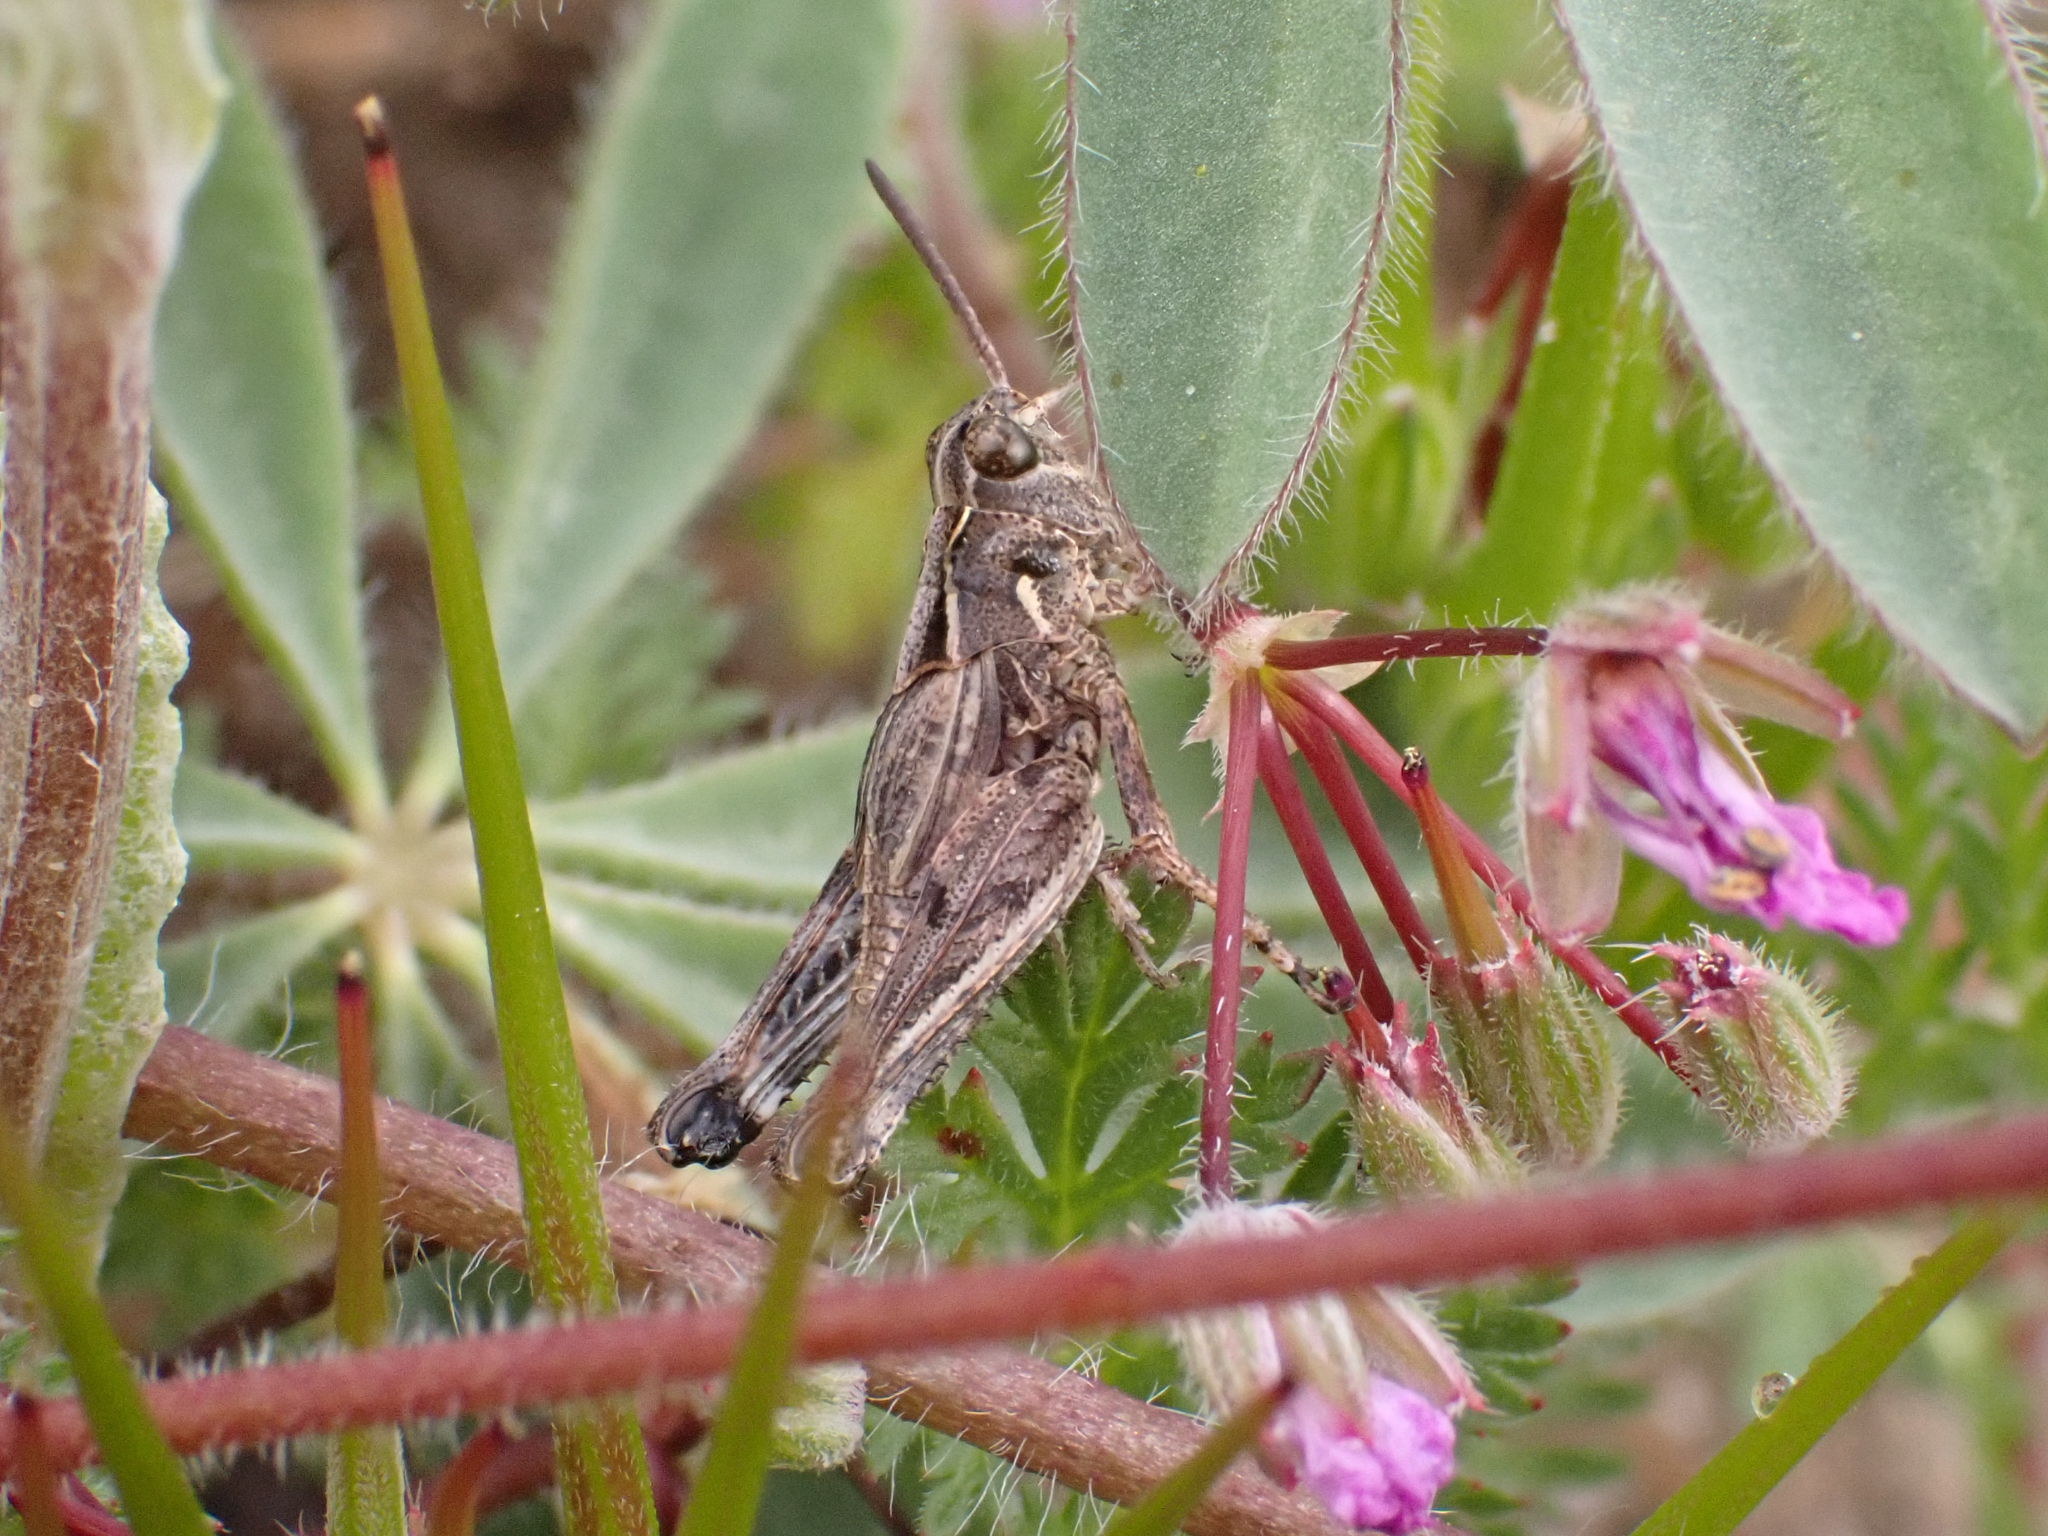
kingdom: Animalia
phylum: Arthropoda
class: Insecta
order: Orthoptera
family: Acrididae
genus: Esselenia
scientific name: Esselenia vanduzeei
